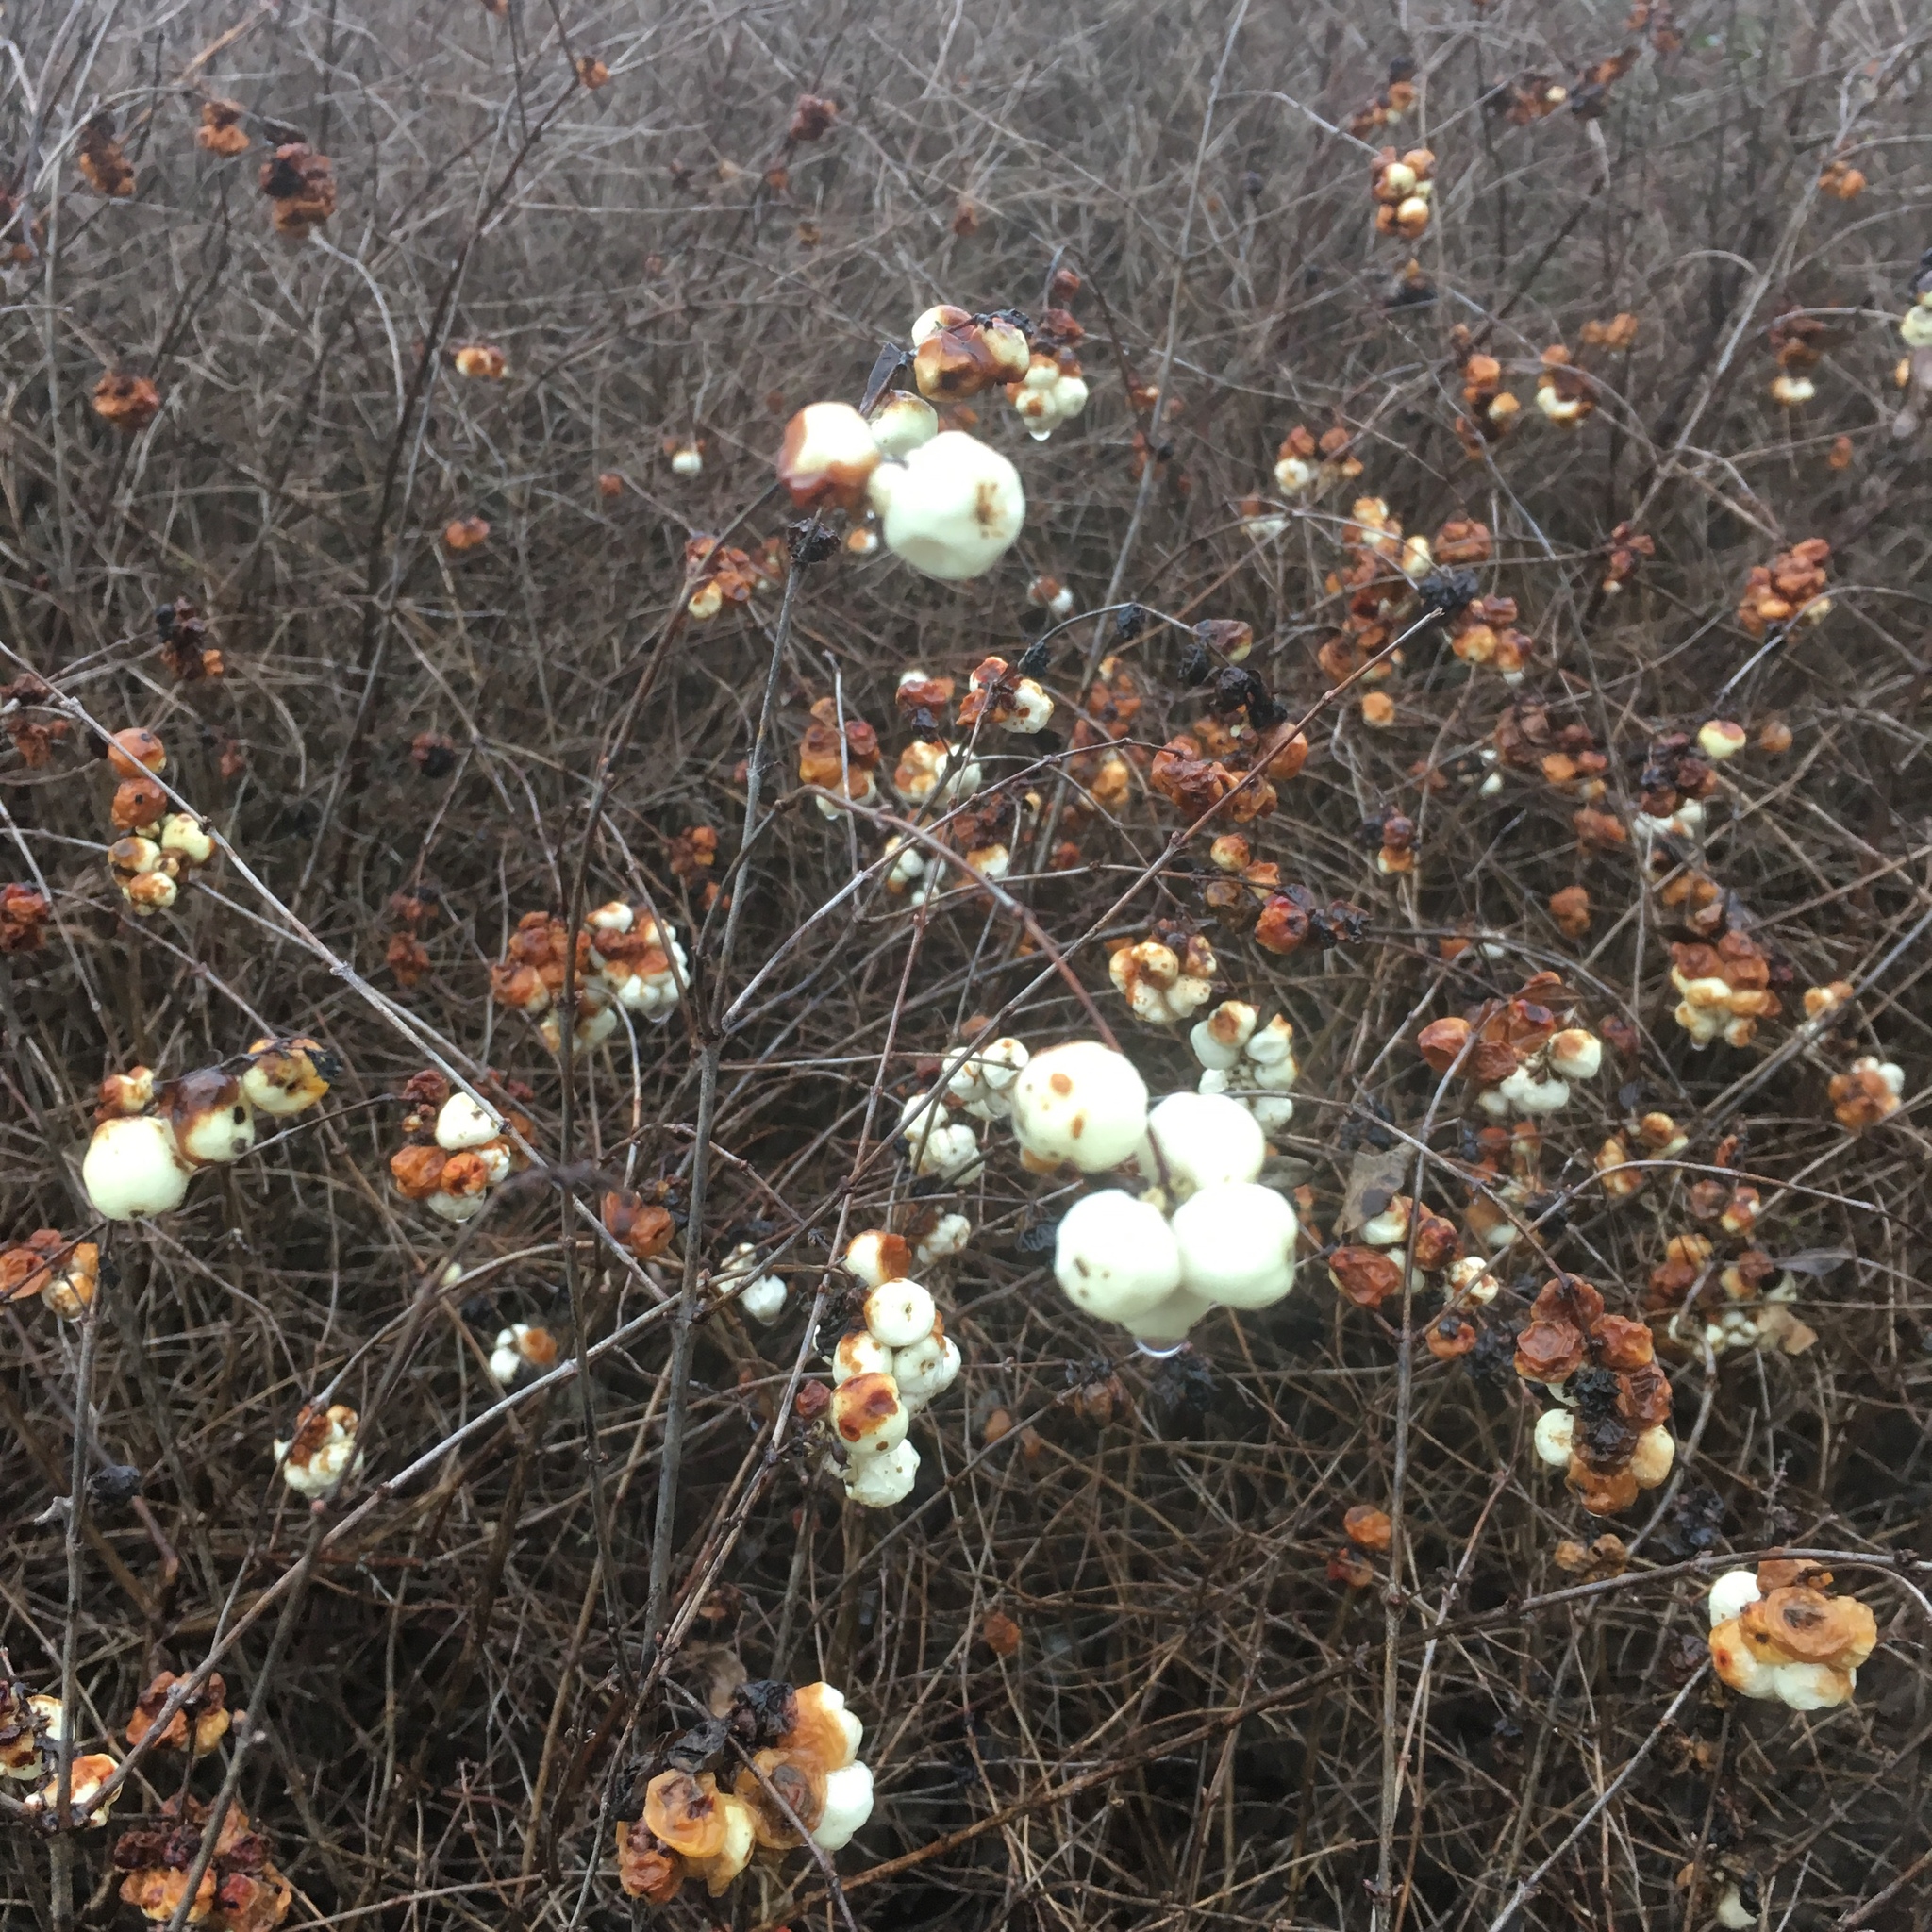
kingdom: Plantae
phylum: Tracheophyta
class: Magnoliopsida
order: Dipsacales
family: Caprifoliaceae
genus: Symphoricarpos
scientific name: Symphoricarpos albus
